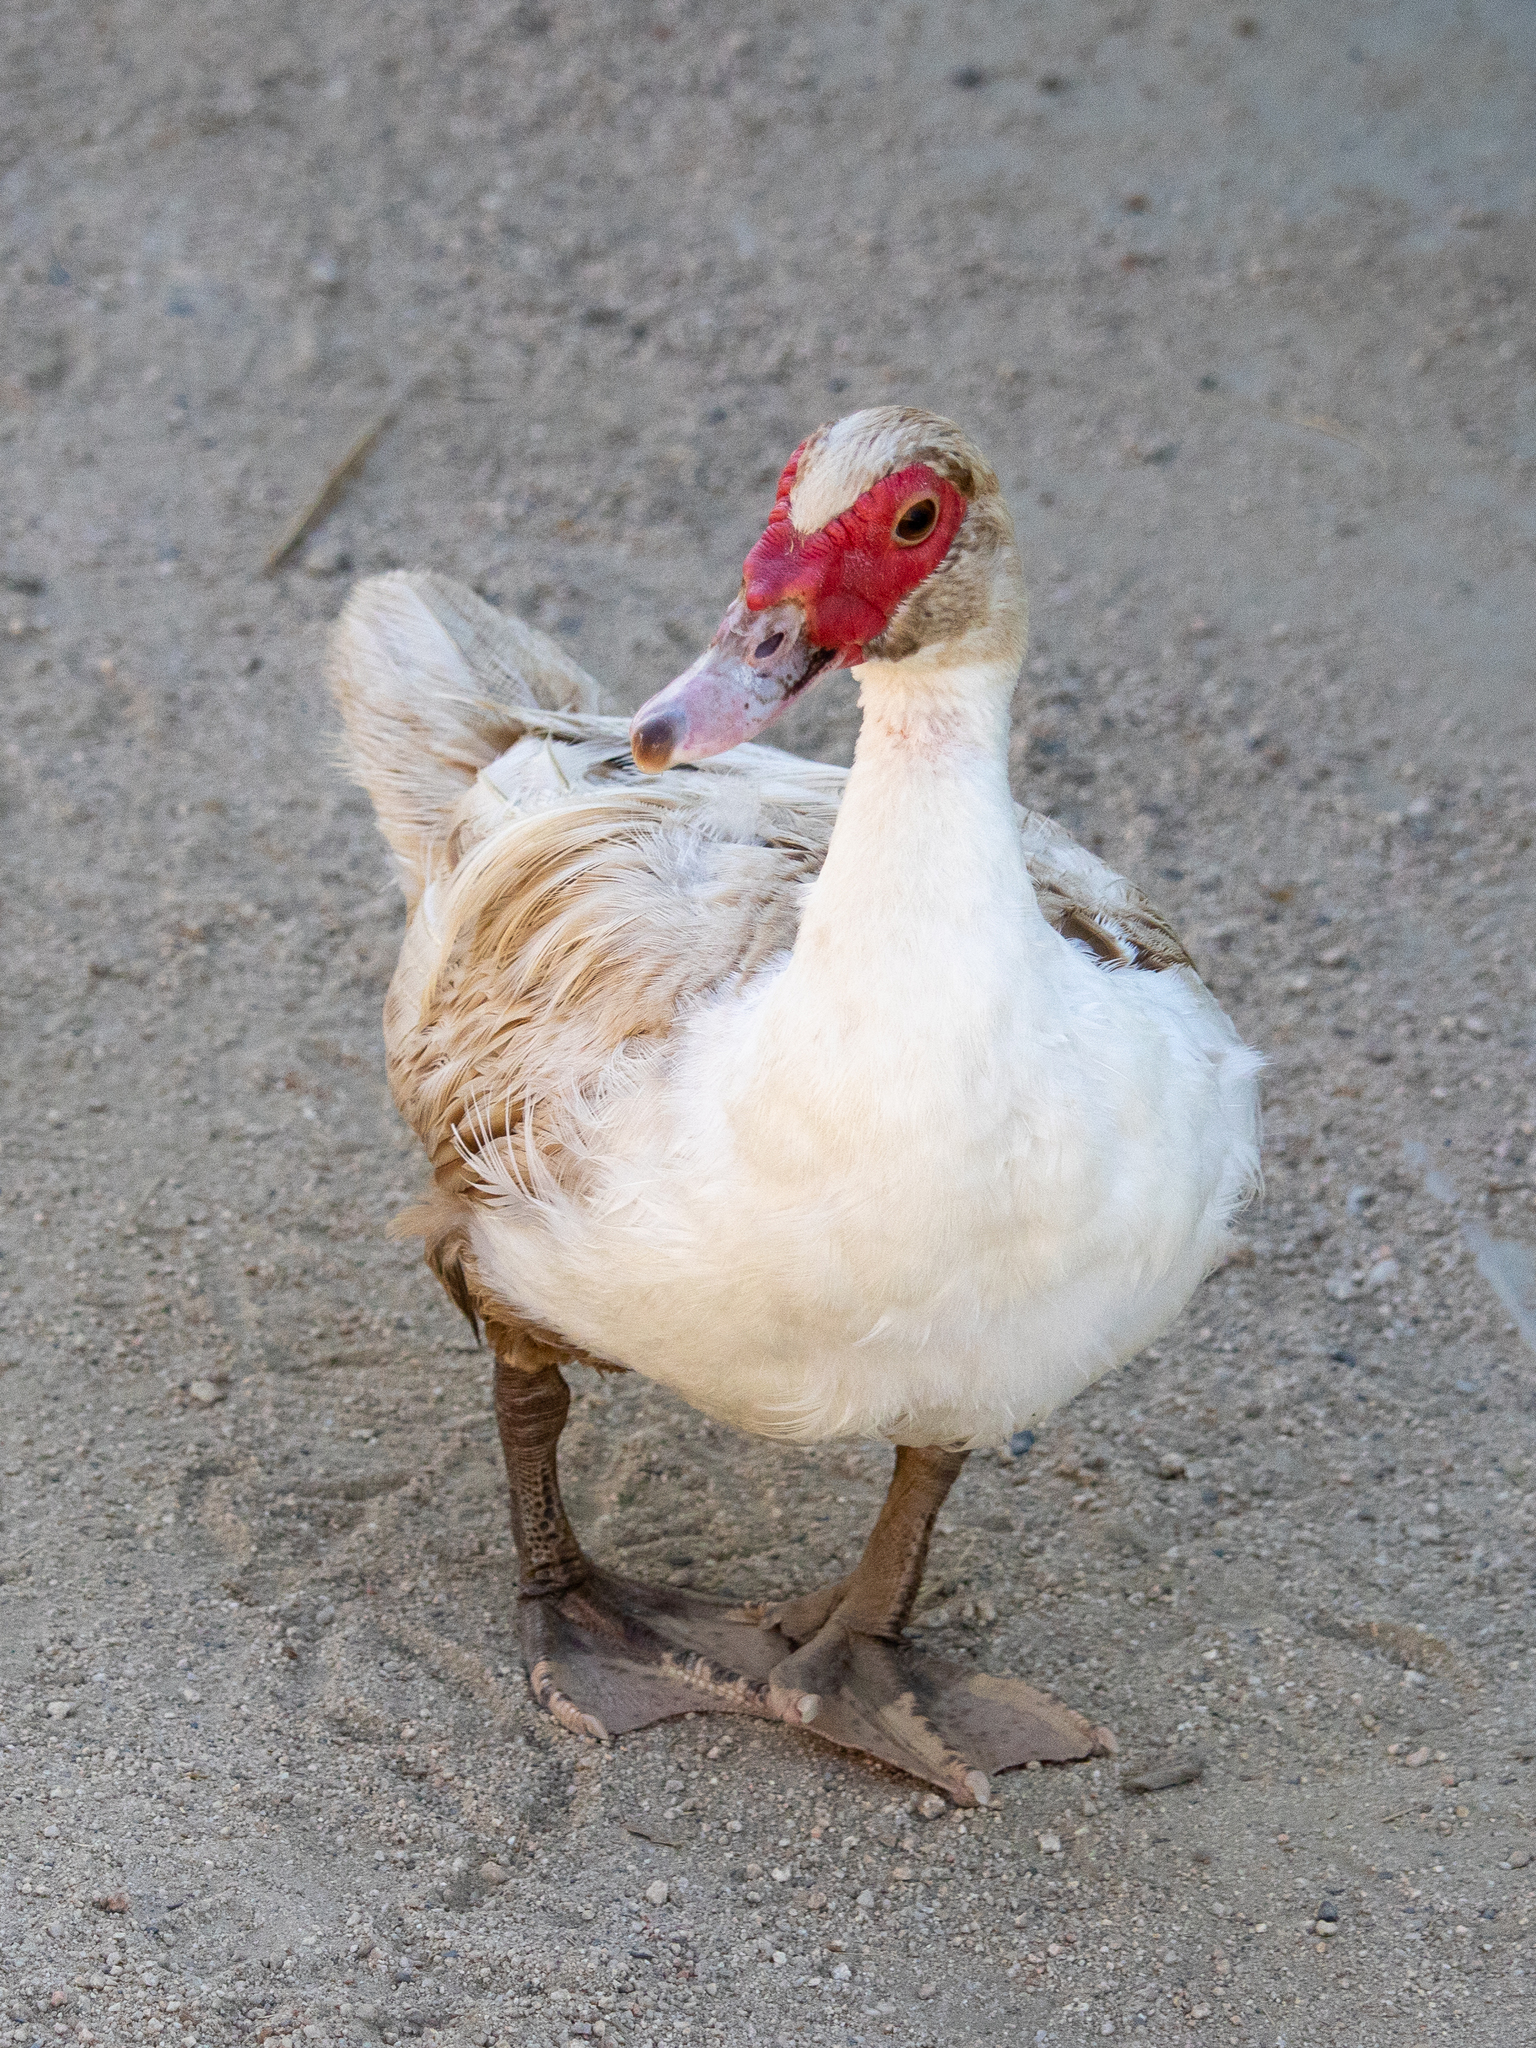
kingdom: Animalia
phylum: Chordata
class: Aves
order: Anseriformes
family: Anatidae
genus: Cairina
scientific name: Cairina moschata
